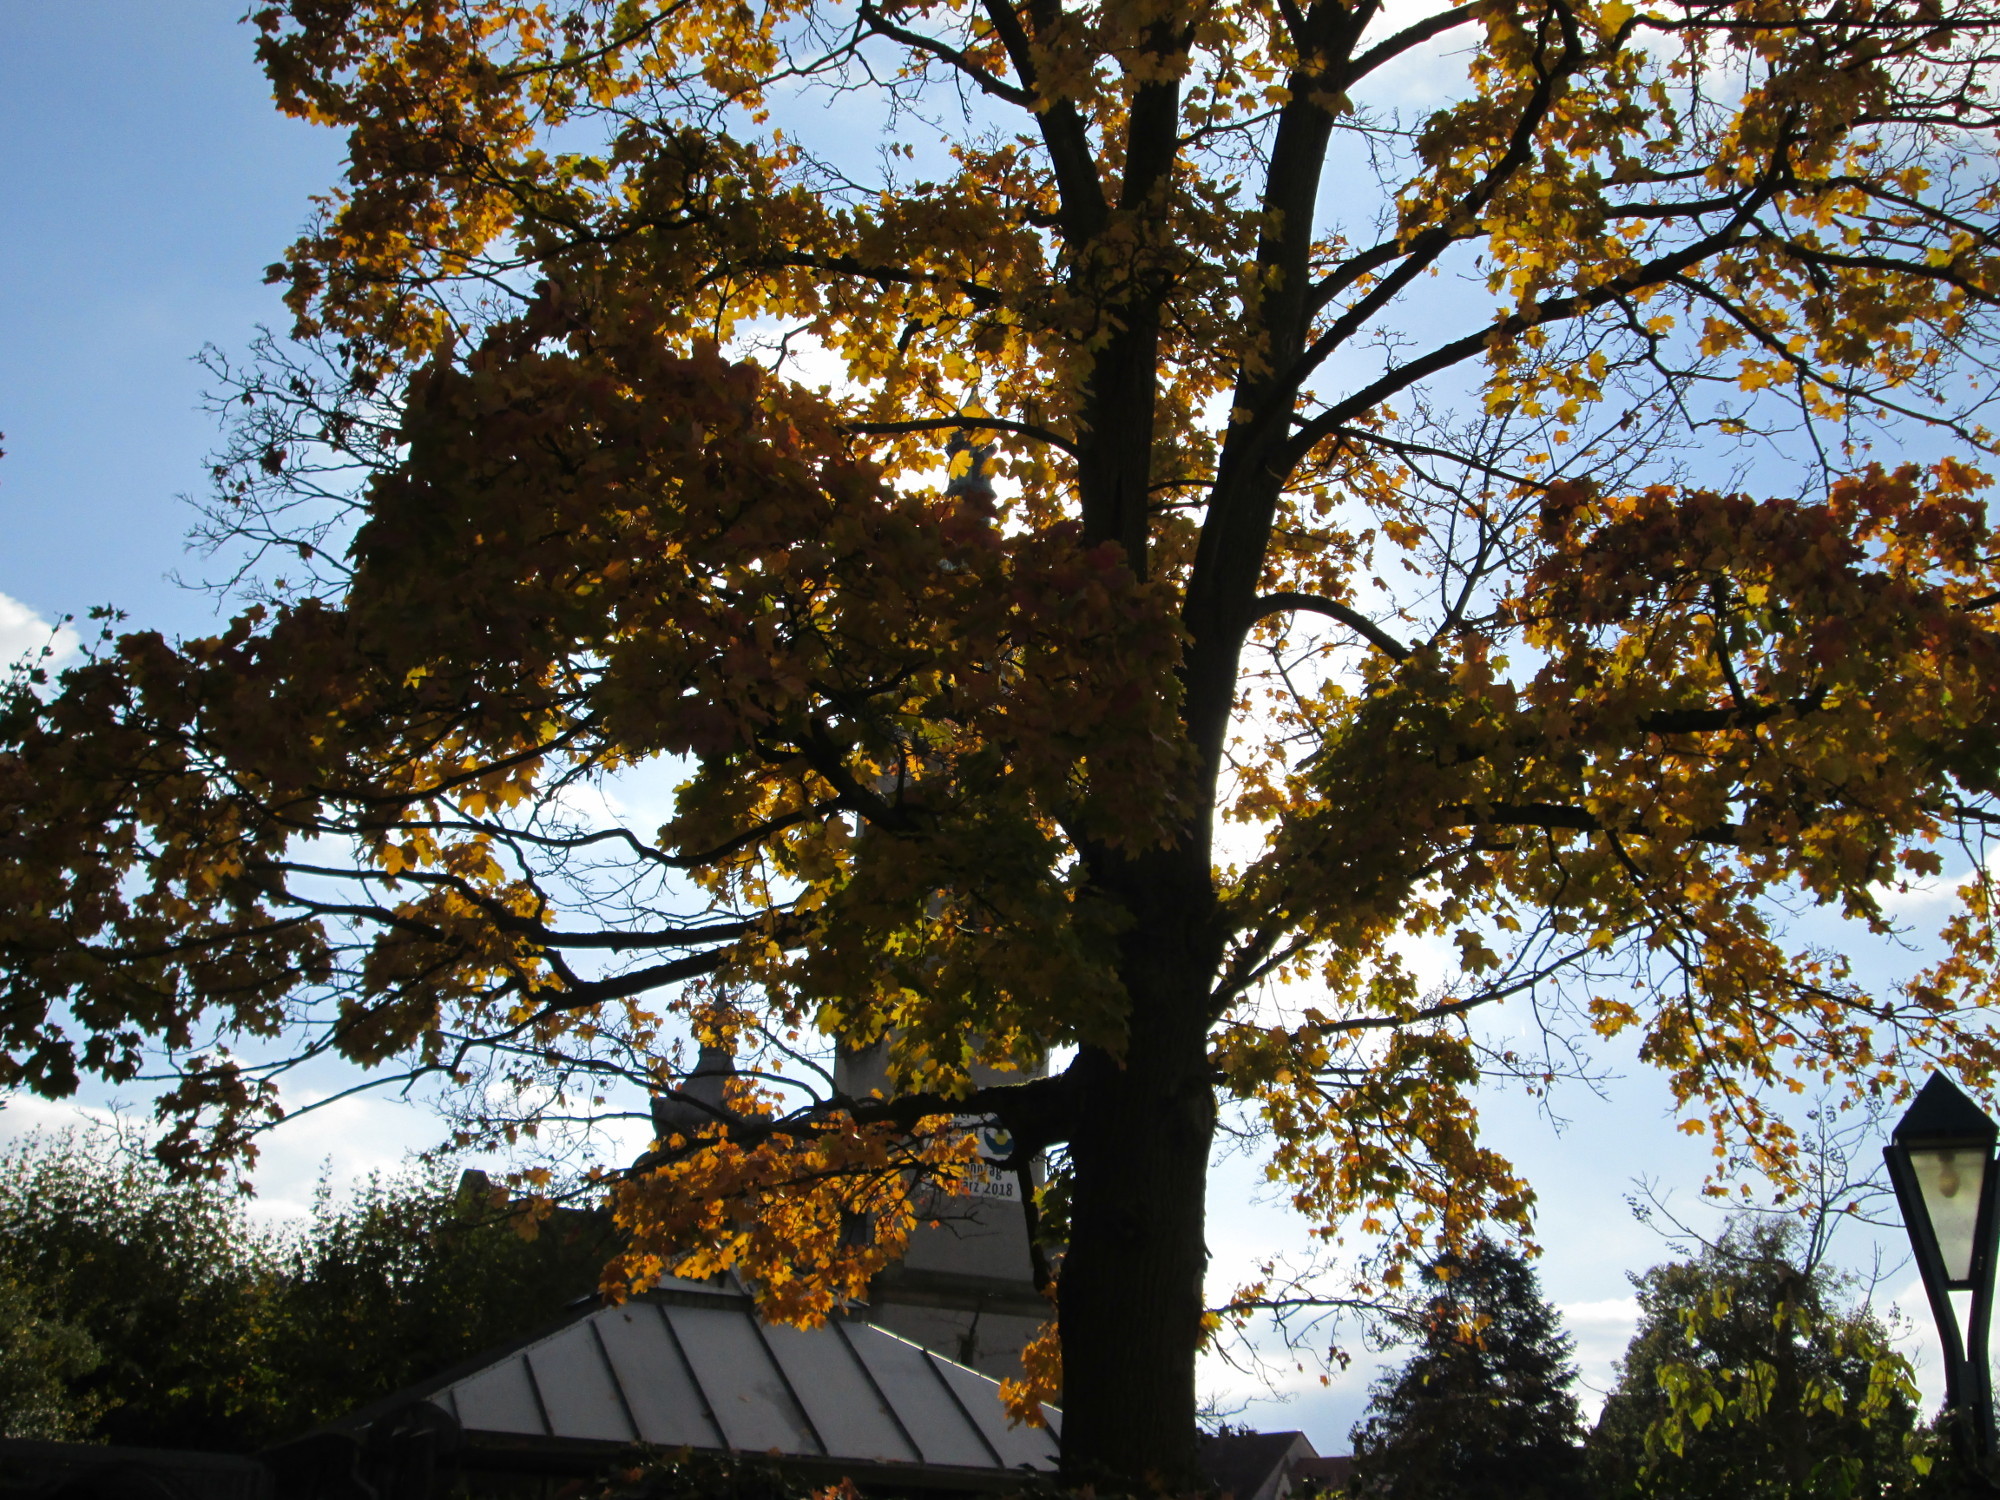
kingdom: Plantae
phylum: Tracheophyta
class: Magnoliopsida
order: Sapindales
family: Sapindaceae
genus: Acer
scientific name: Acer platanoides
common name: Norway maple
